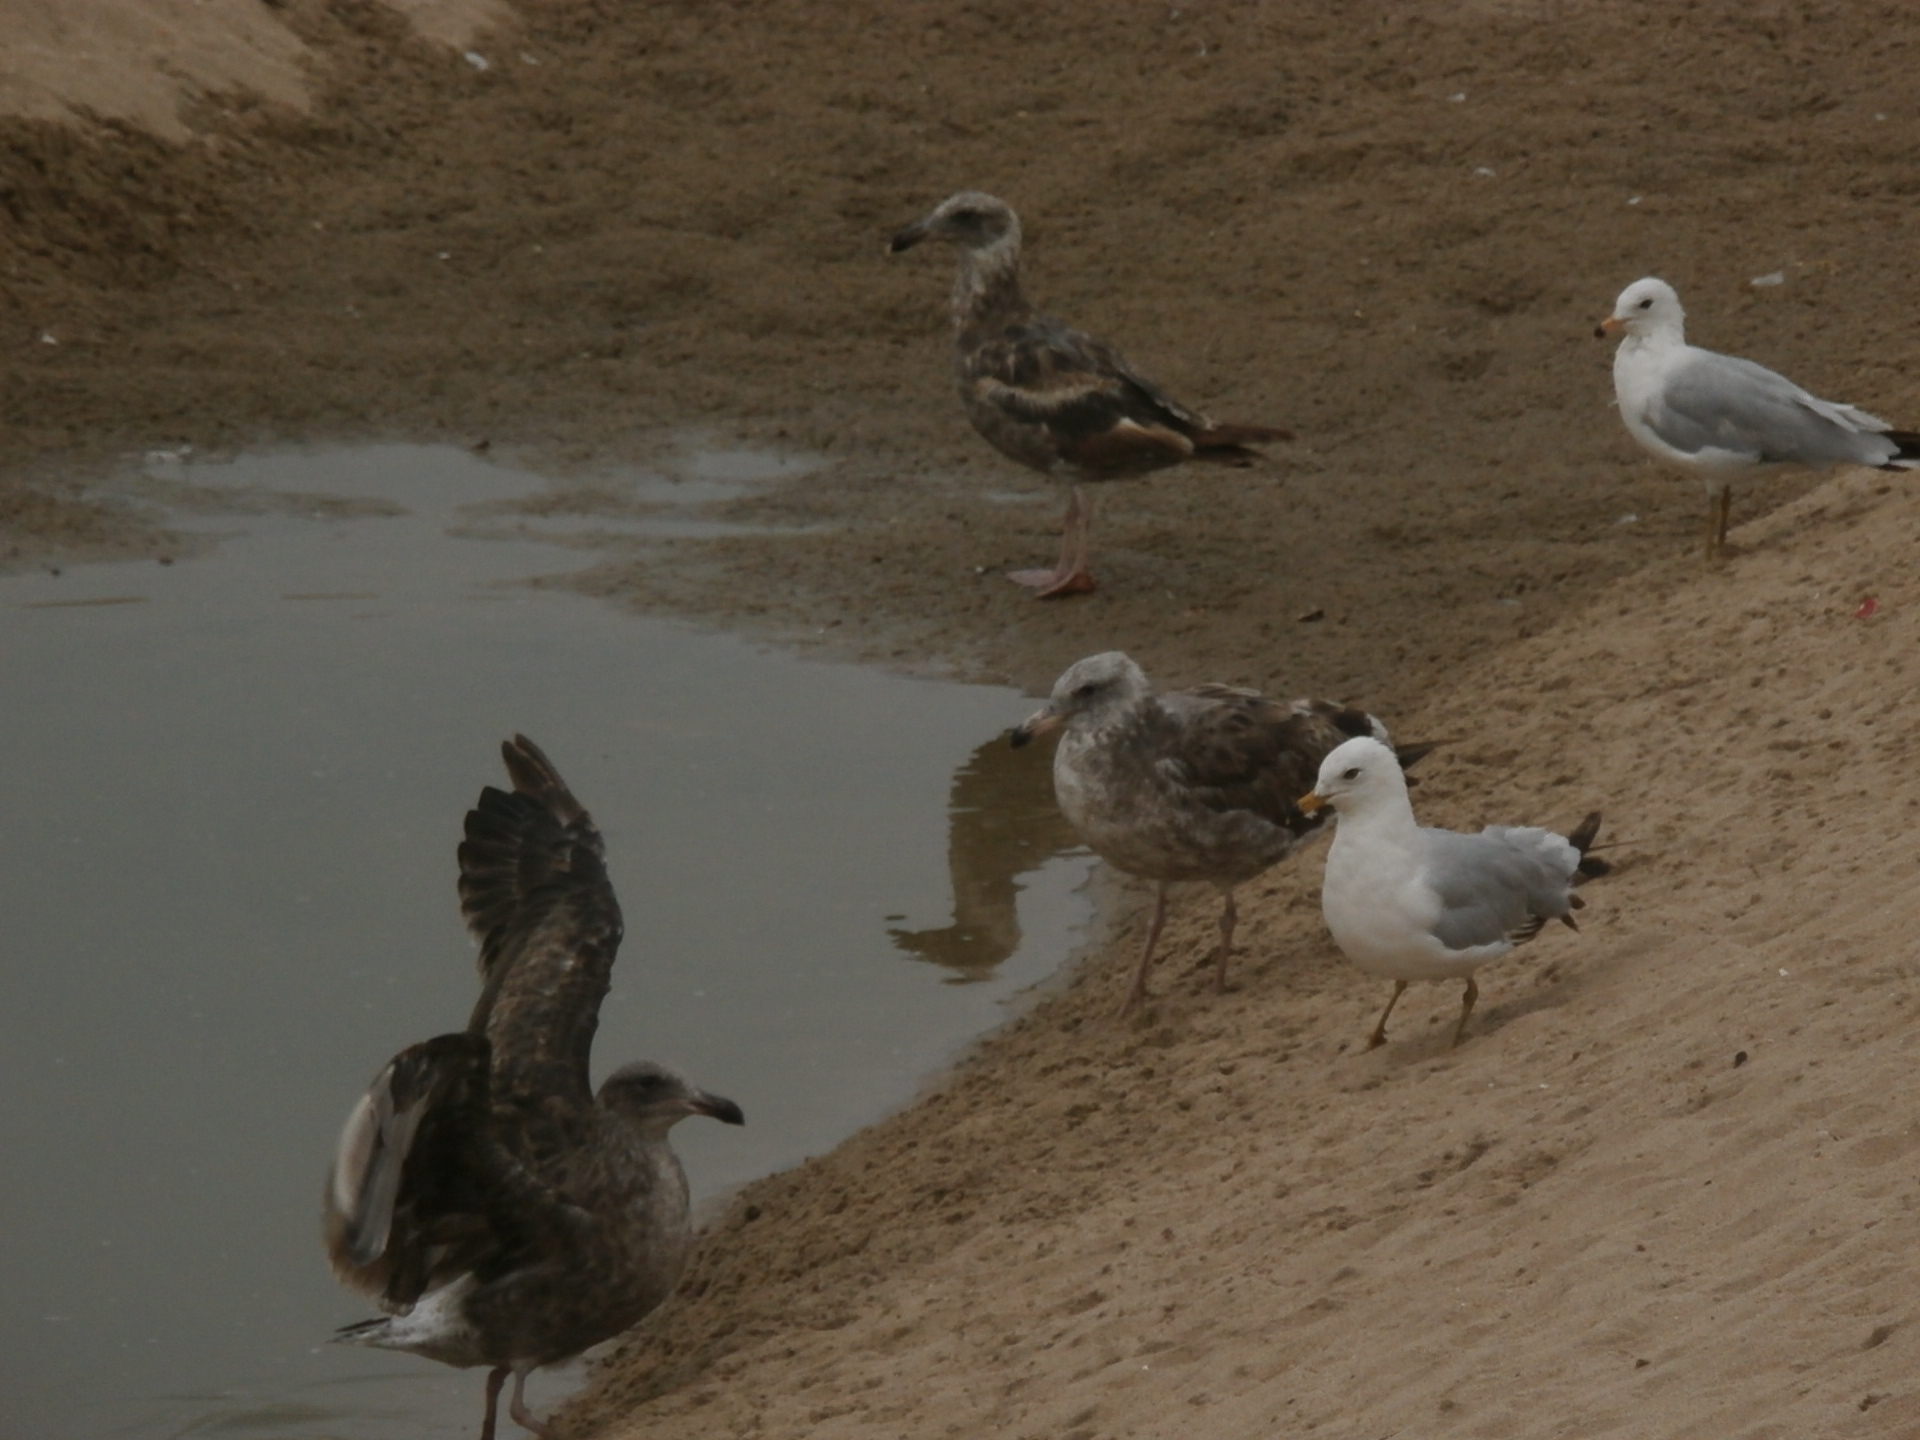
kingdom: Animalia
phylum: Chordata
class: Aves
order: Charadriiformes
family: Laridae
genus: Larus
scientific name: Larus delawarensis
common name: Ring-billed gull
